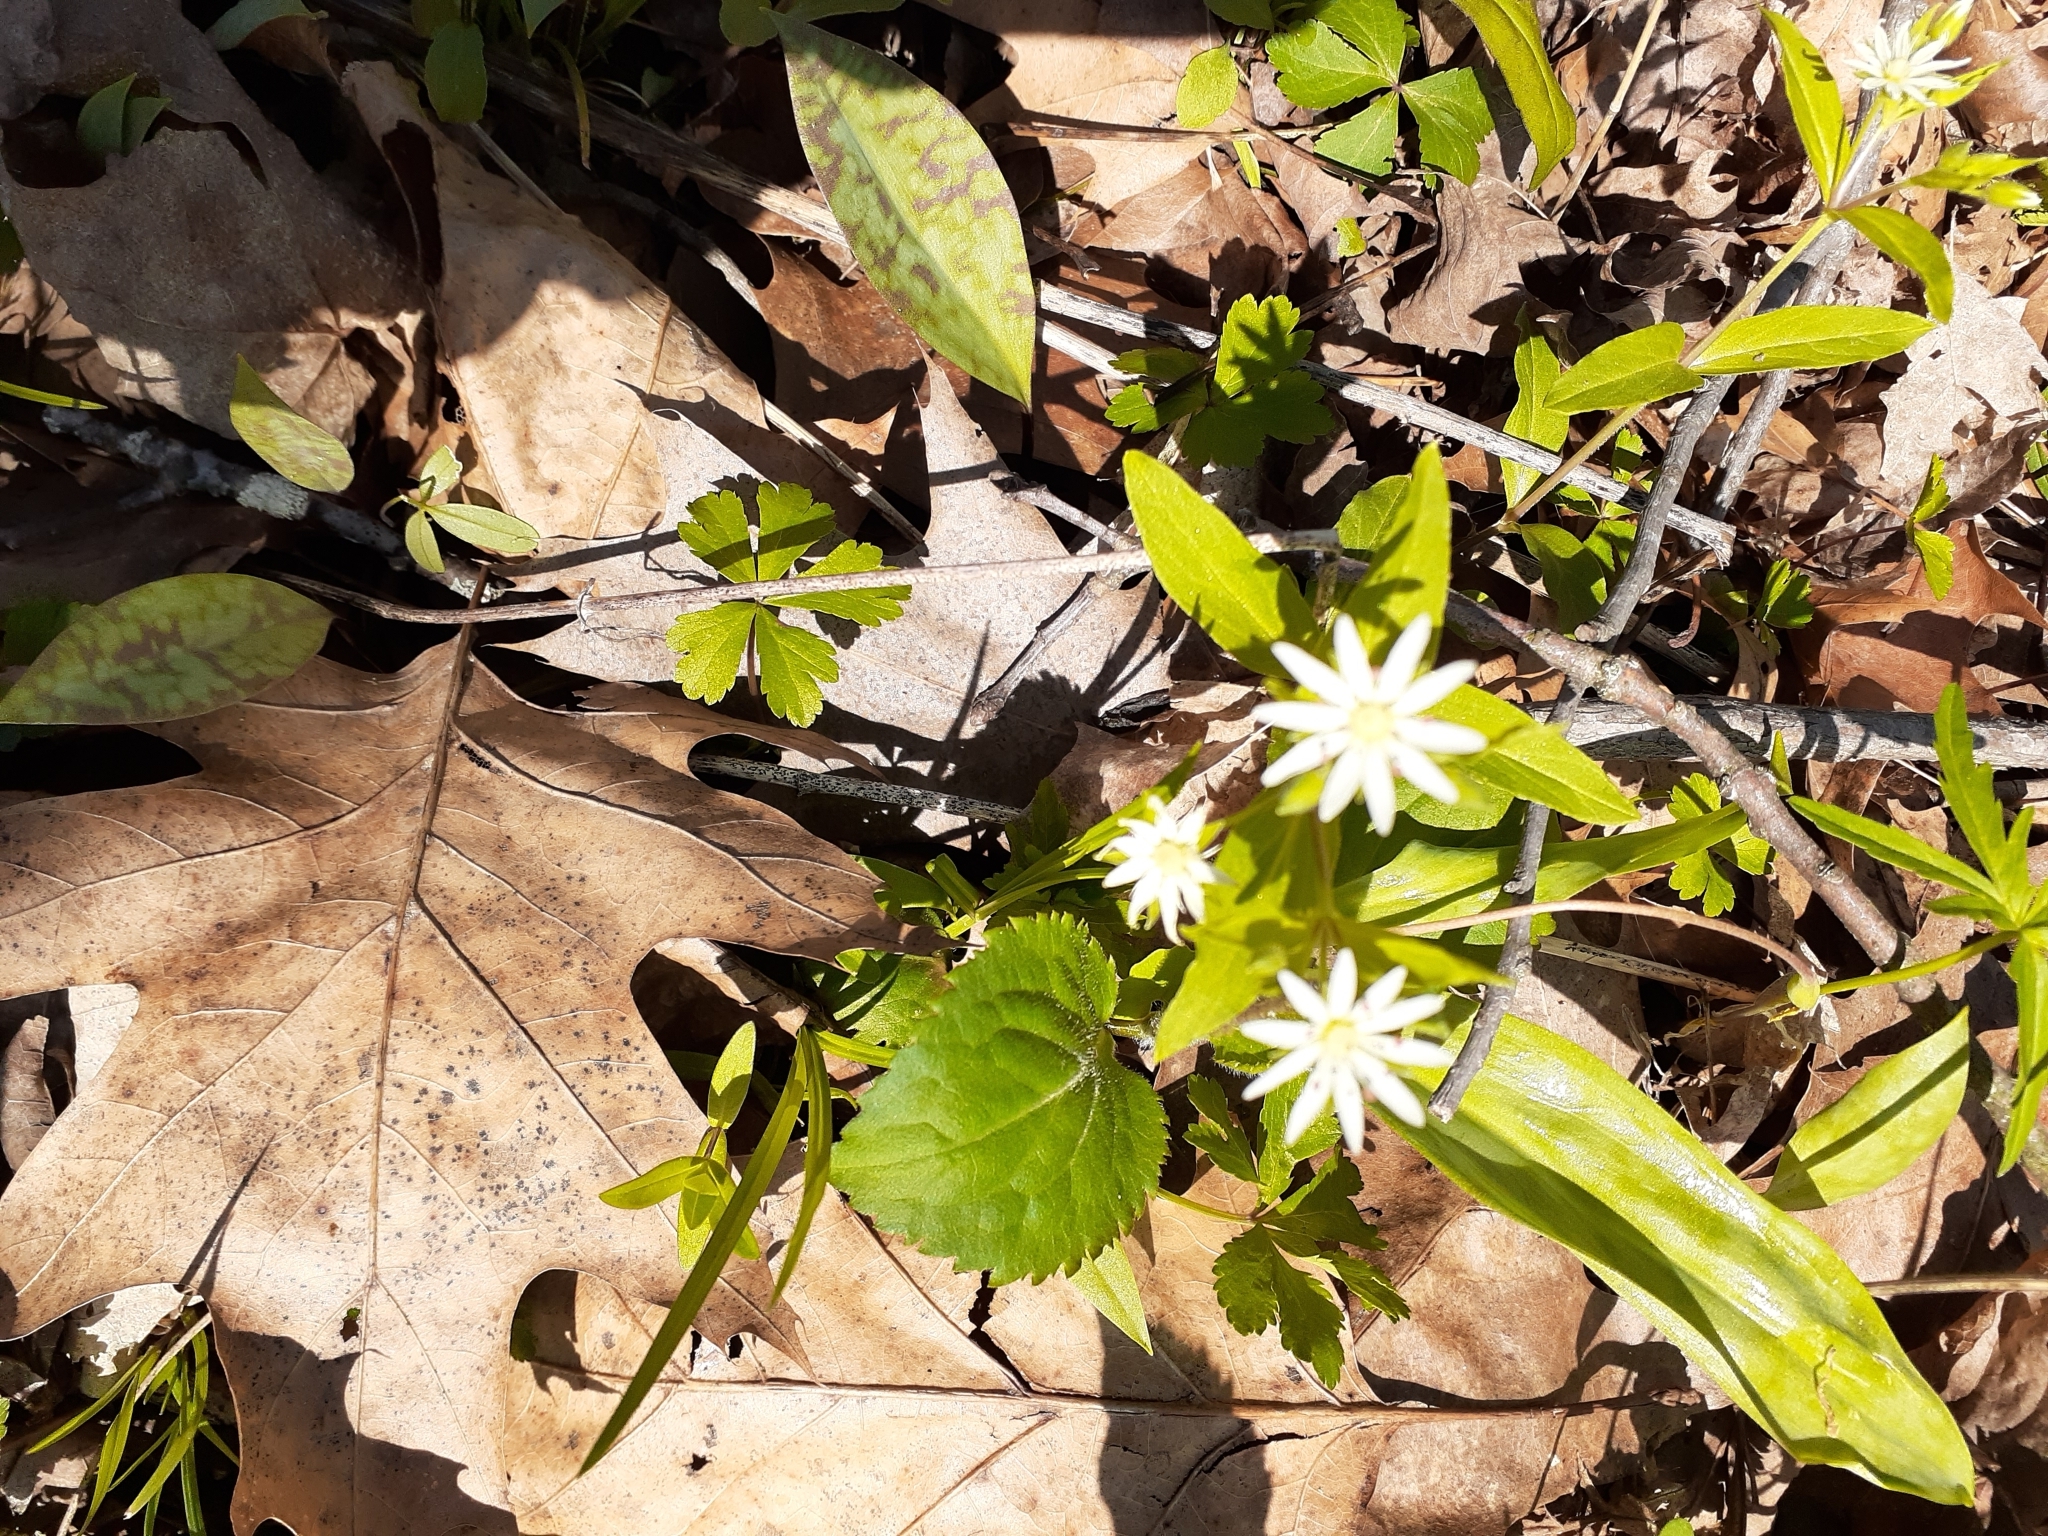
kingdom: Plantae
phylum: Tracheophyta
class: Magnoliopsida
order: Caryophyllales
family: Caryophyllaceae
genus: Stellaria
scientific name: Stellaria pubera
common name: Star chickweed
